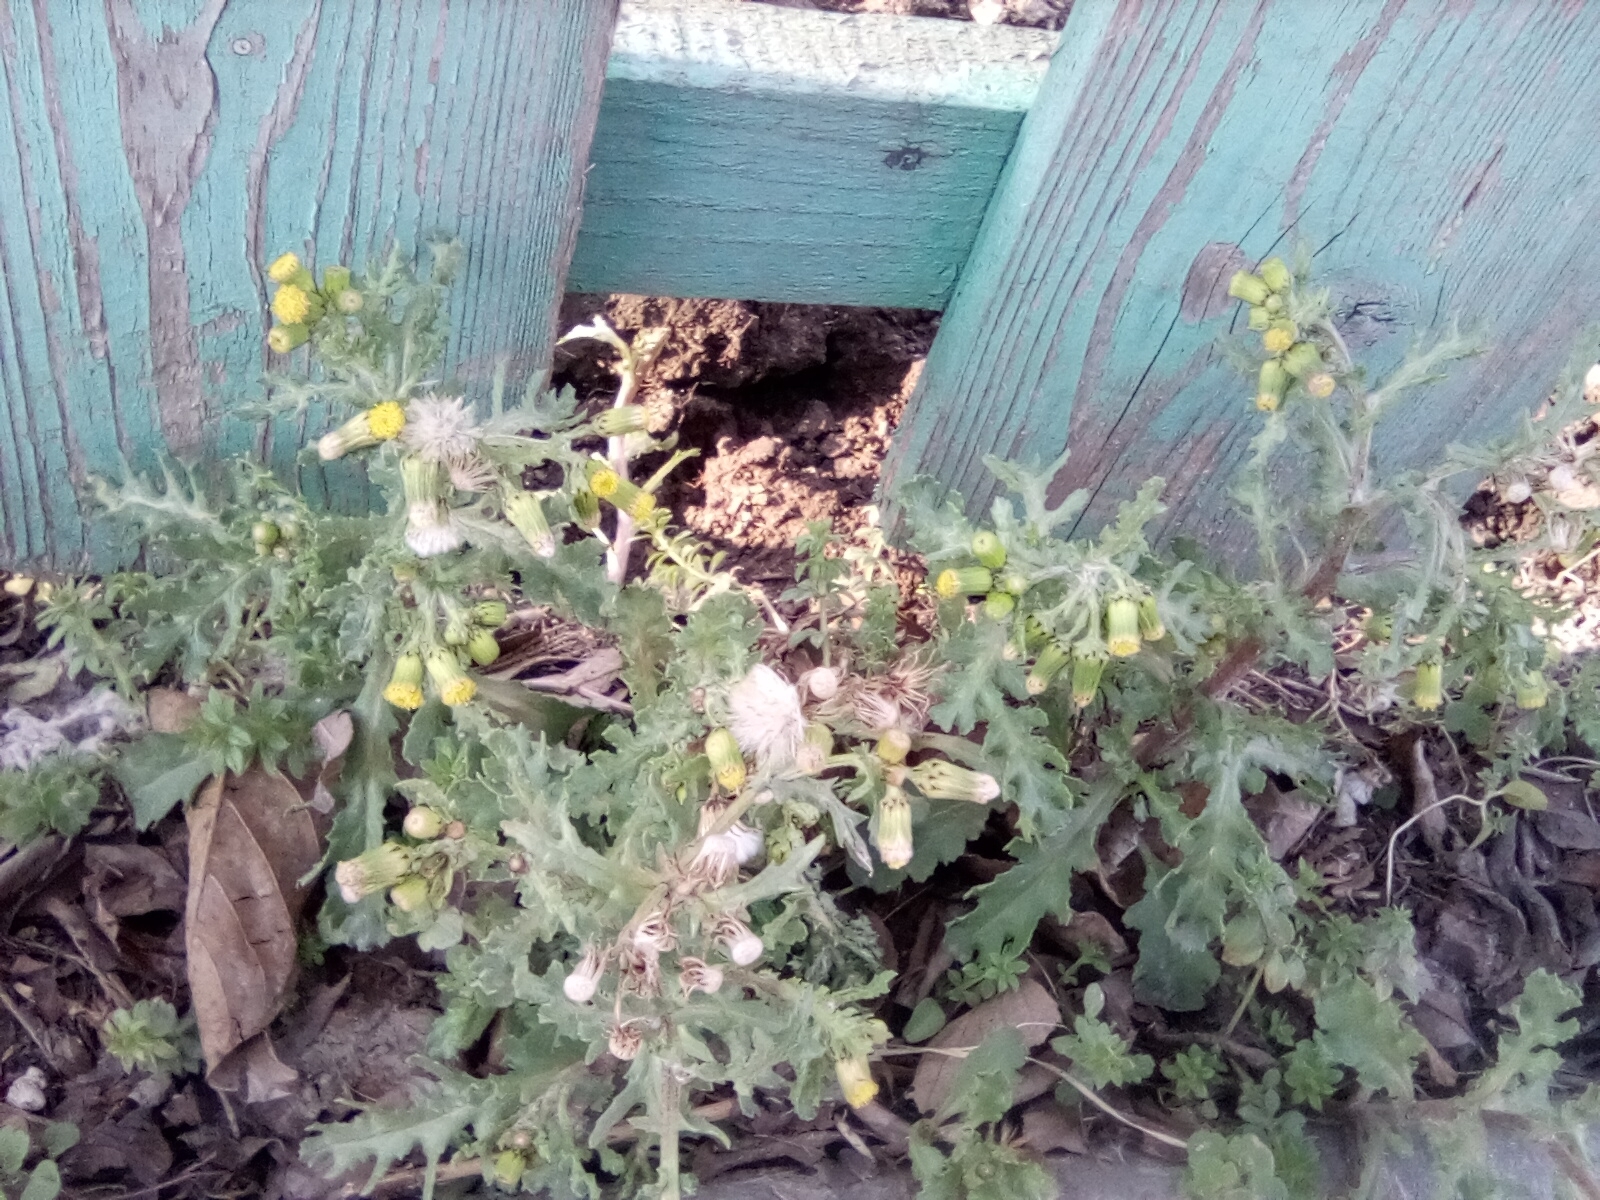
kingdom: Plantae
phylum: Tracheophyta
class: Magnoliopsida
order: Asterales
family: Asteraceae
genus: Senecio
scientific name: Senecio vulgaris
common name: Old-man-in-the-spring
